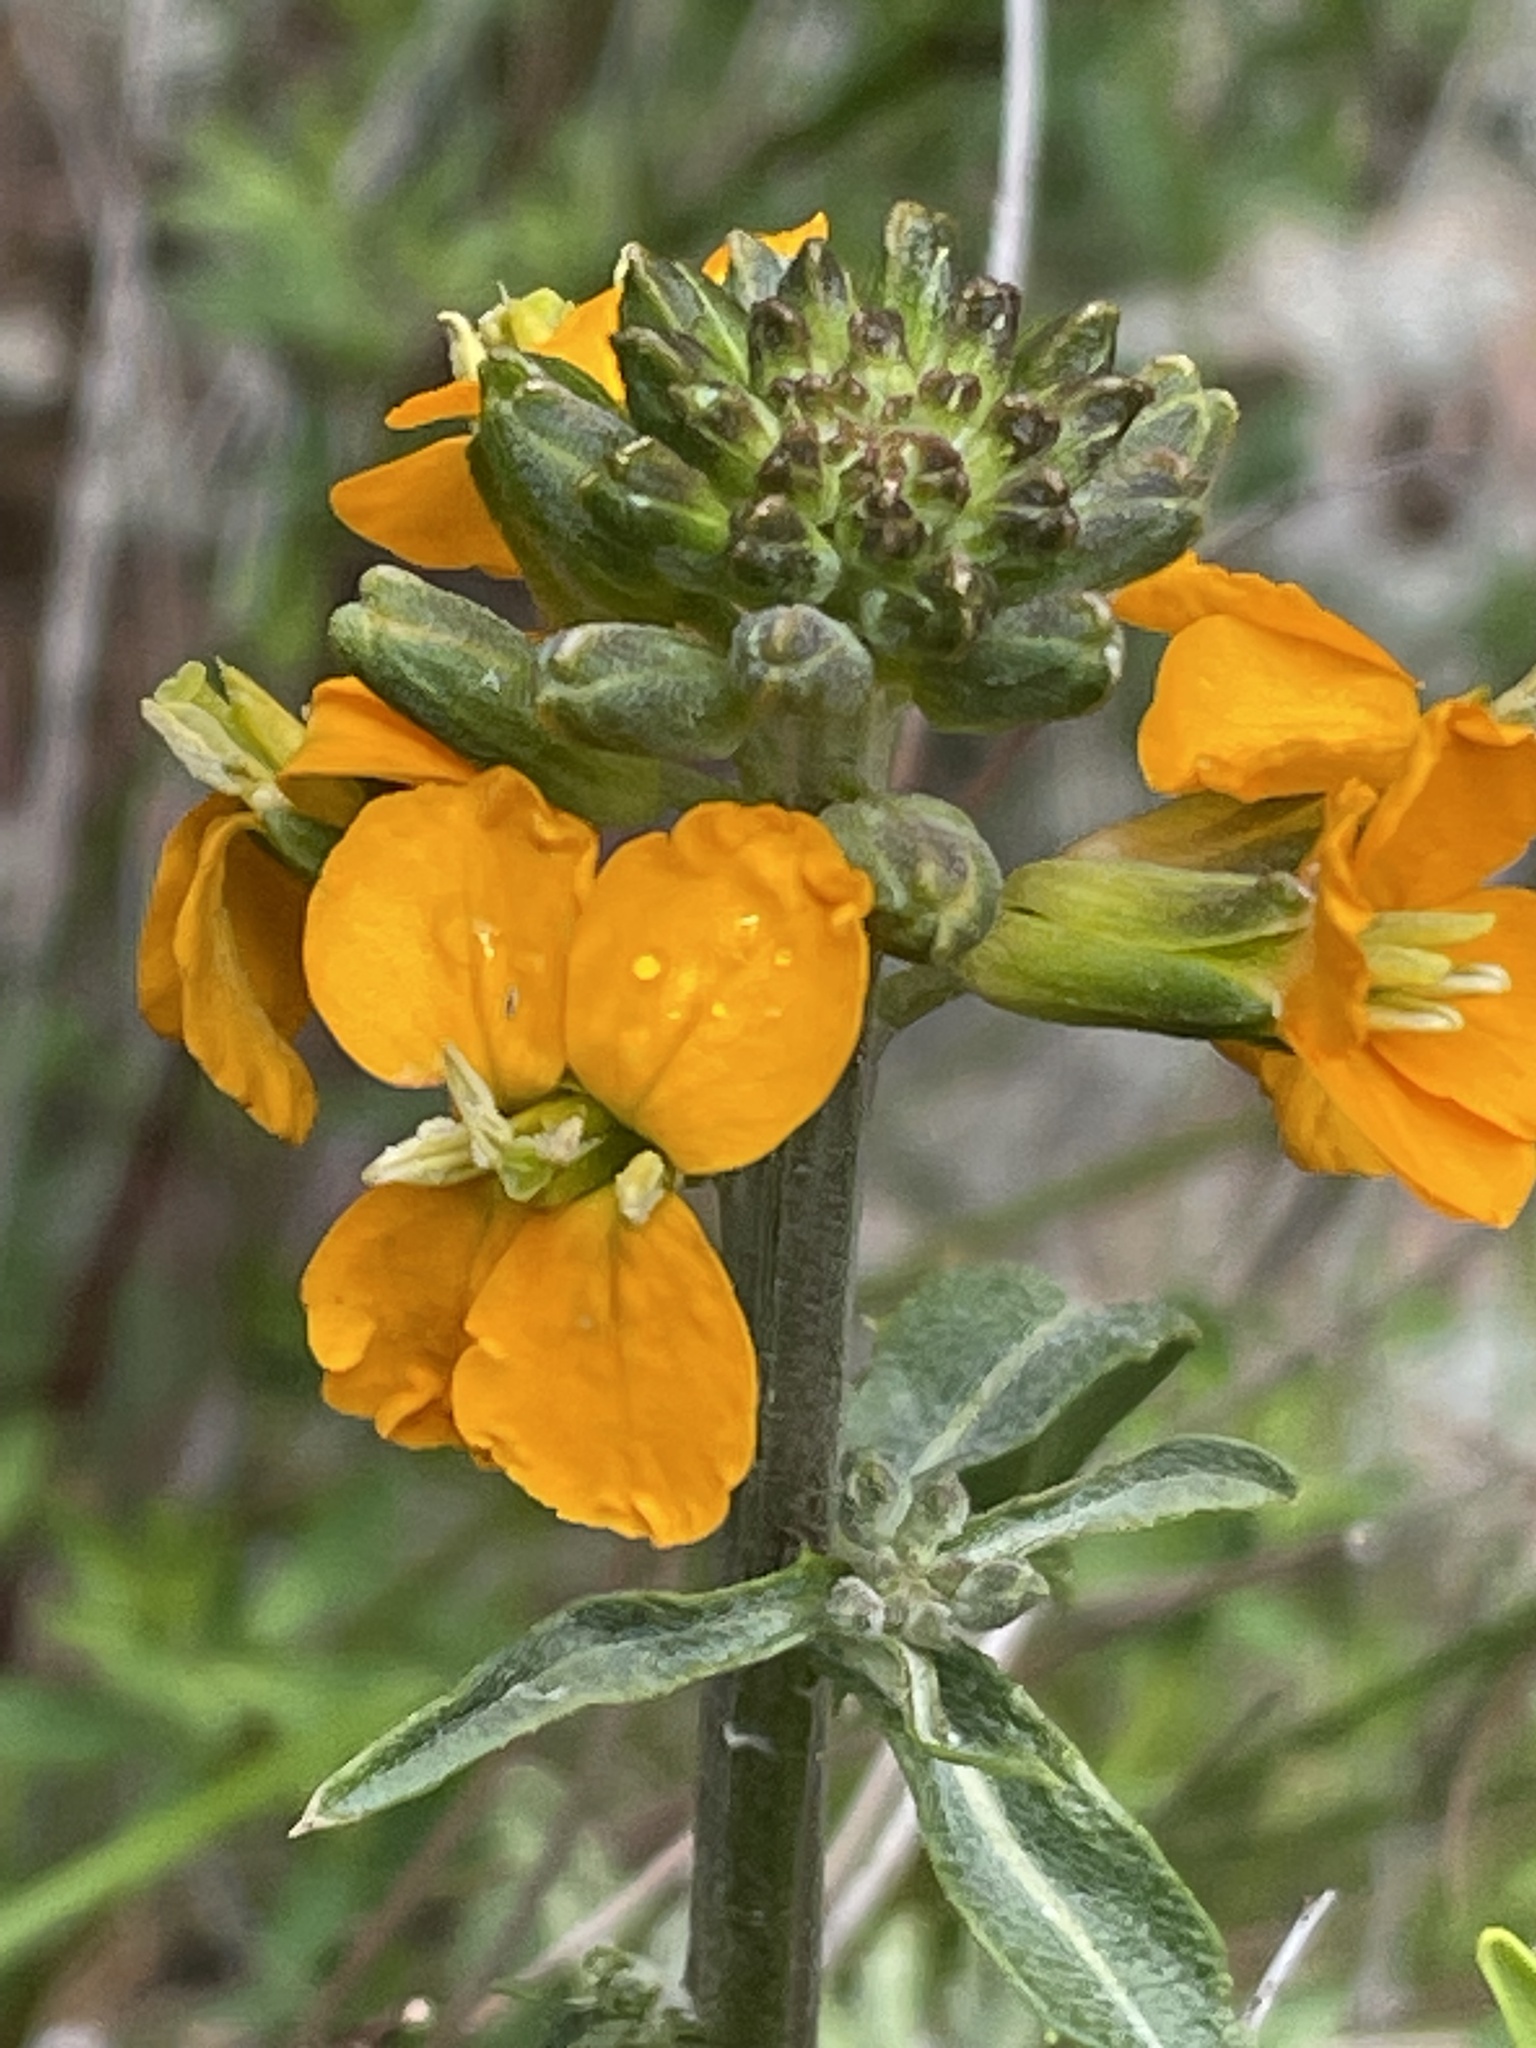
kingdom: Plantae
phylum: Tracheophyta
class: Magnoliopsida
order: Brassicales
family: Brassicaceae
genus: Erysimum
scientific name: Erysimum capitatum
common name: Western wallflower
